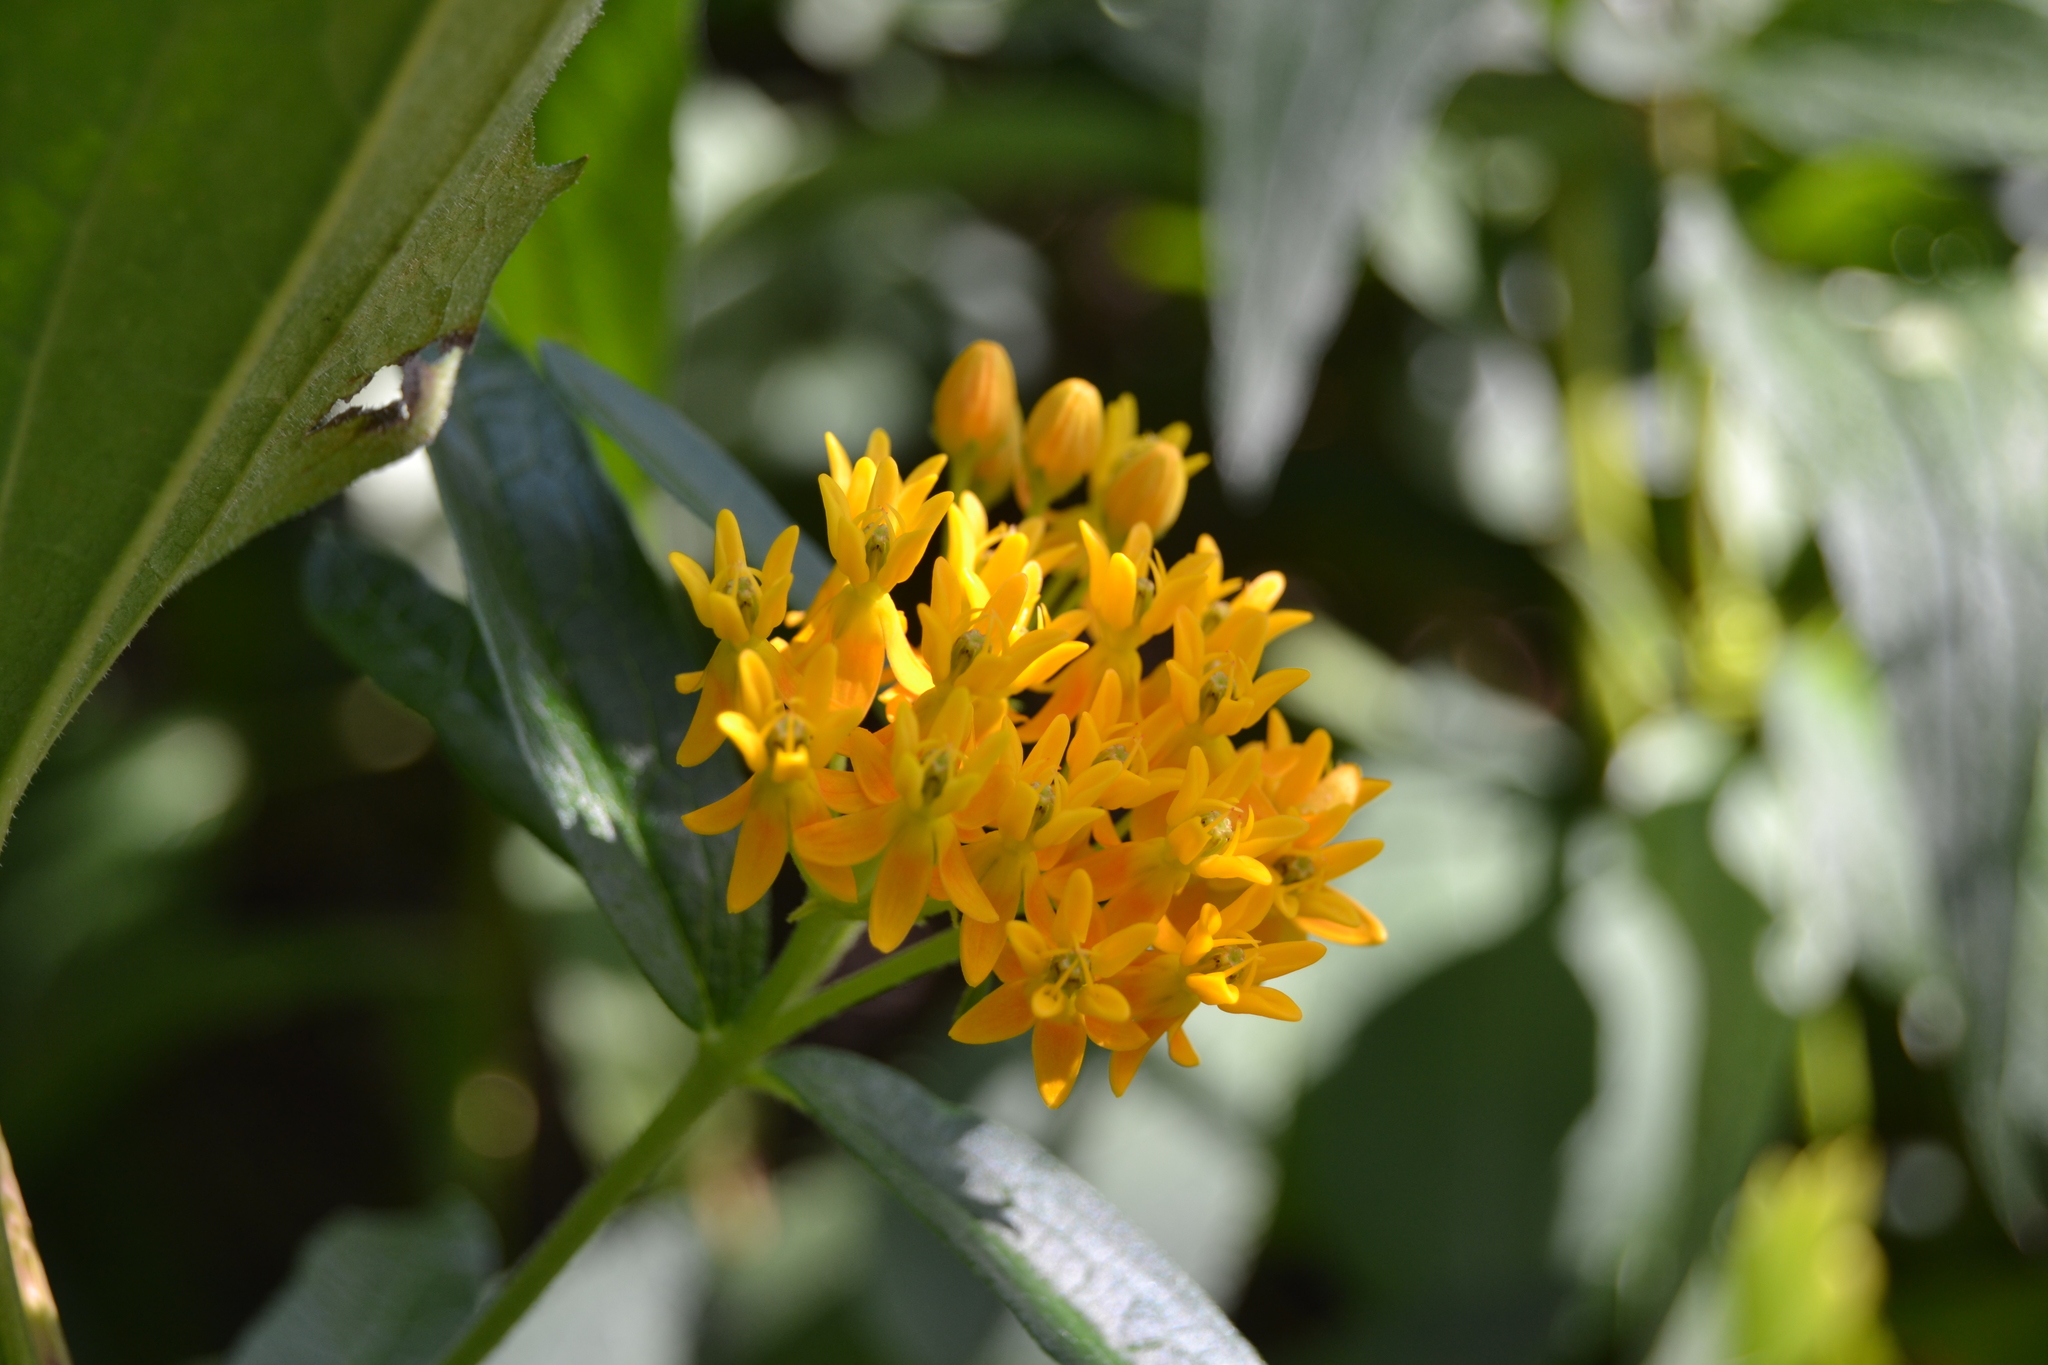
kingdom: Plantae
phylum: Tracheophyta
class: Magnoliopsida
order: Gentianales
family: Apocynaceae
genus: Asclepias
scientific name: Asclepias tuberosa
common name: Butterfly milkweed
